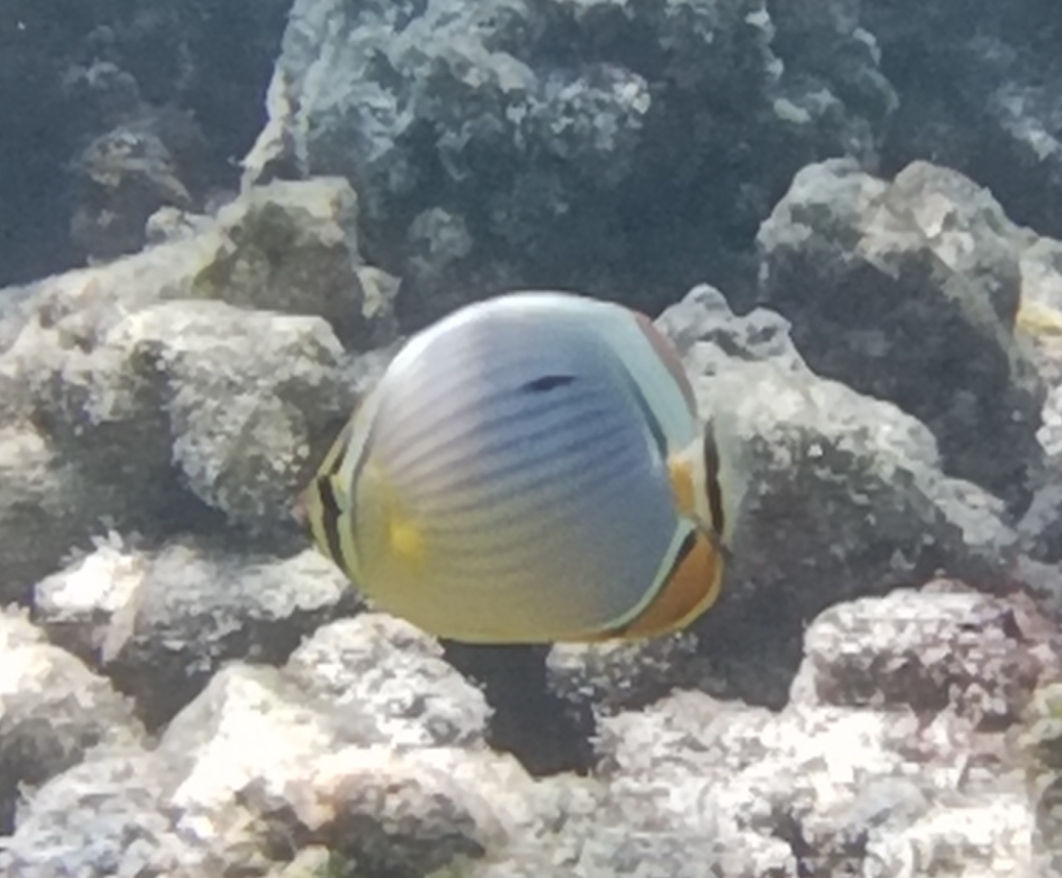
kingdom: Animalia
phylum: Chordata
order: Perciformes
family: Chaetodontidae
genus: Chaetodon
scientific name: Chaetodon trifasciatus
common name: Redfin butterflyfish
